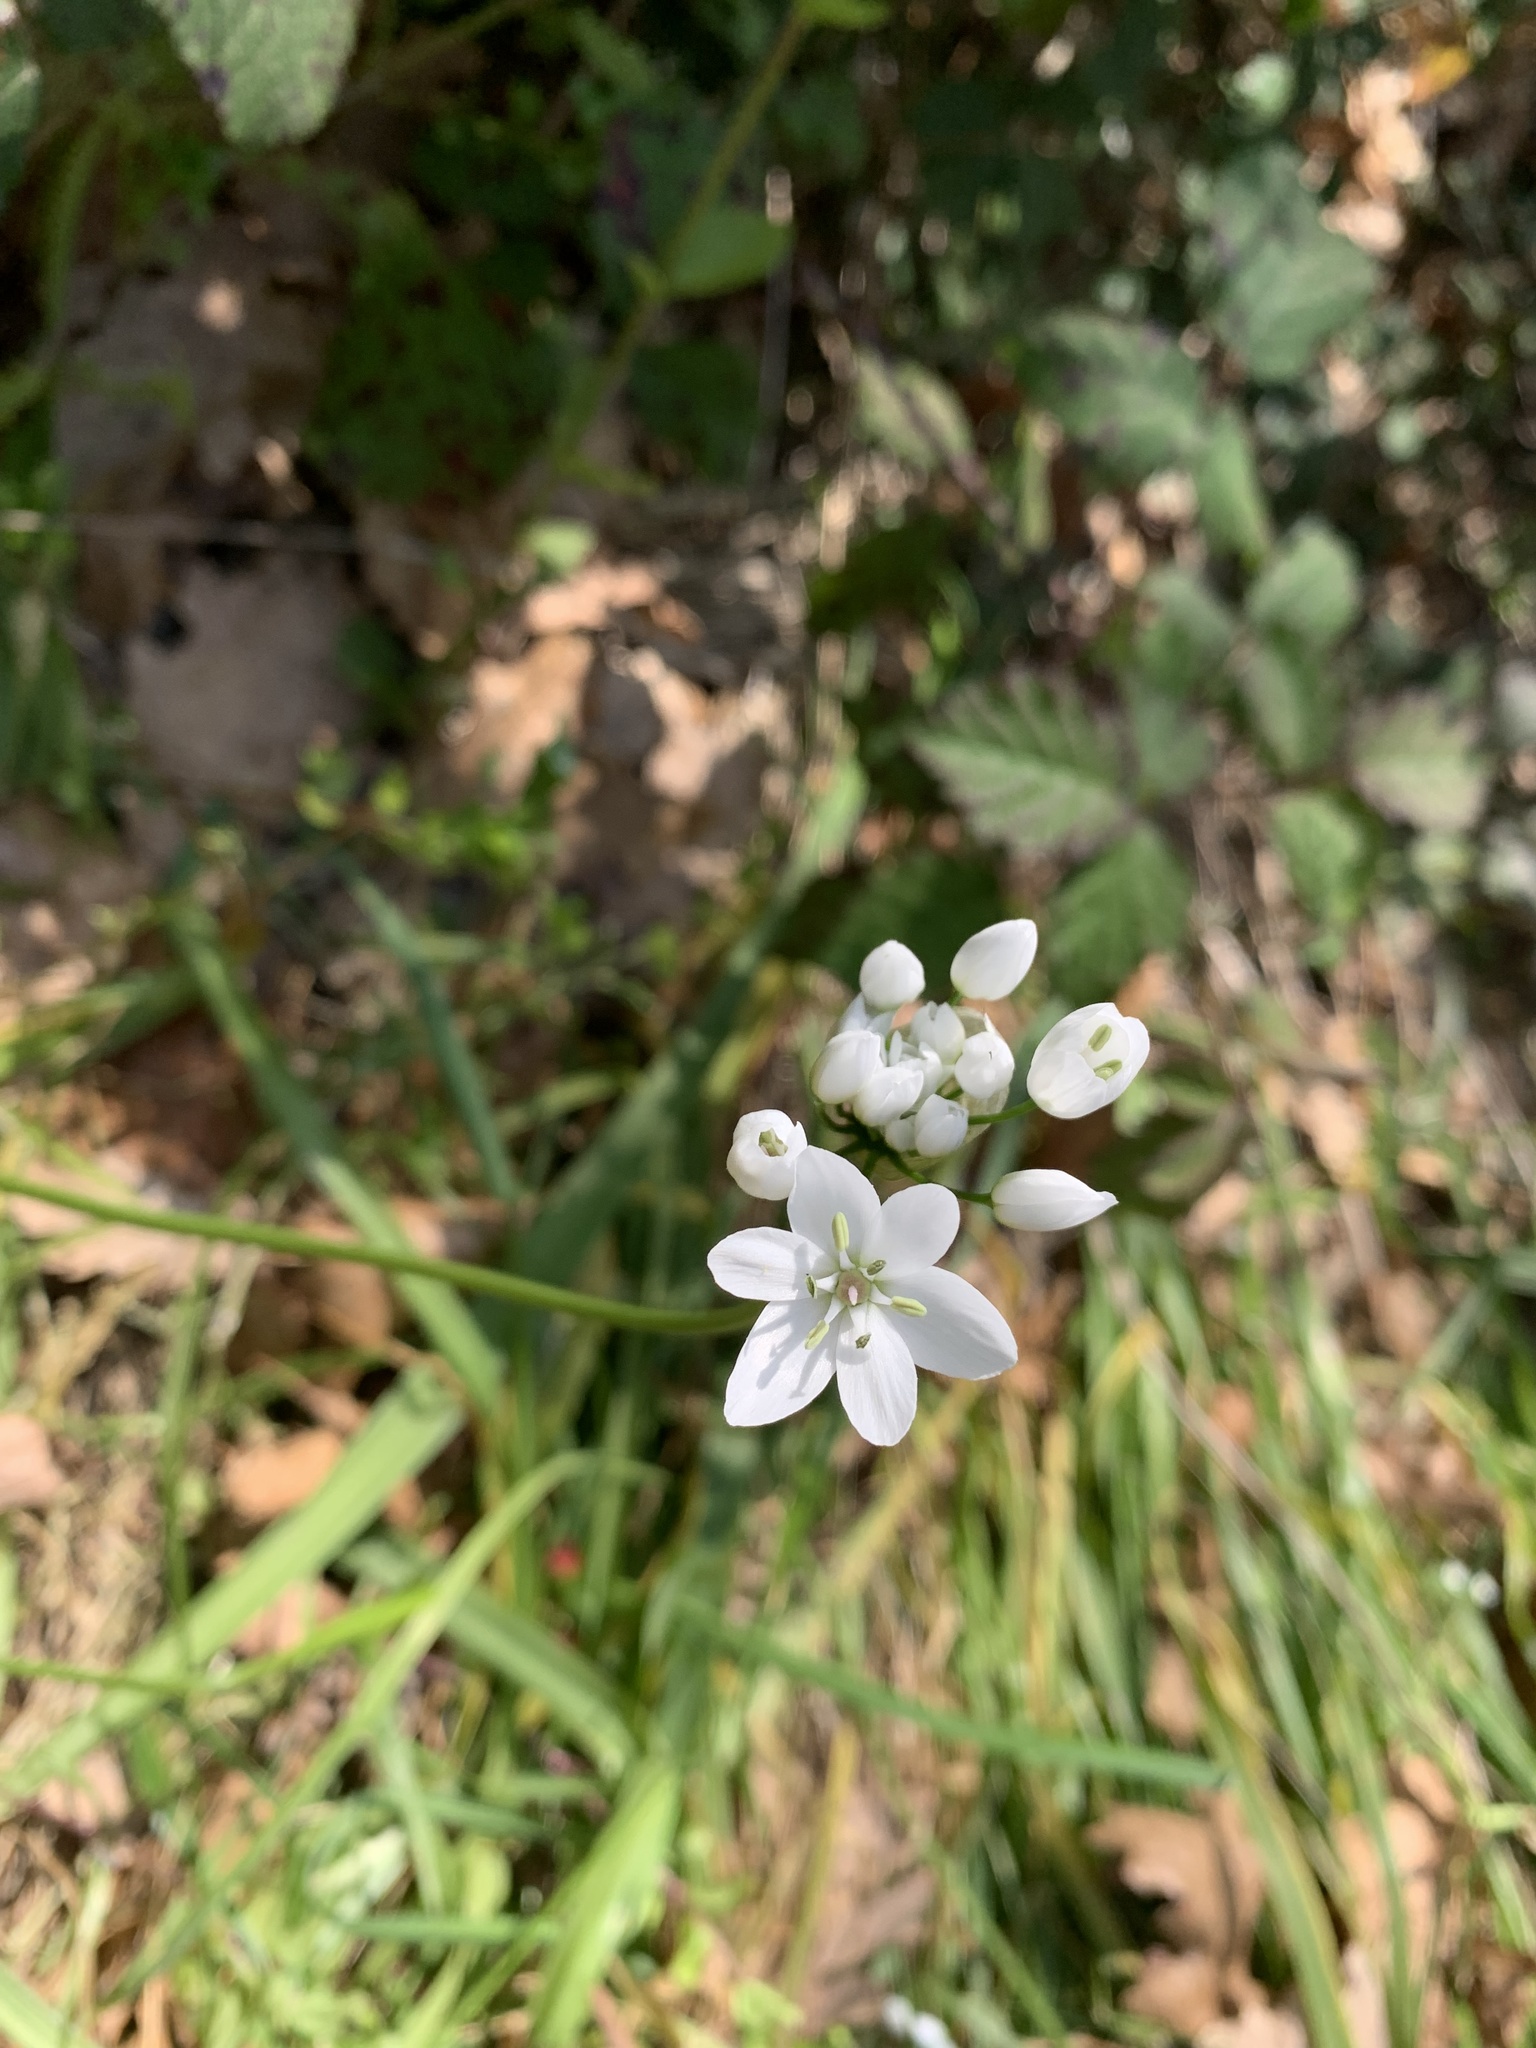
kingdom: Plantae
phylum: Tracheophyta
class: Liliopsida
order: Asparagales
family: Amaryllidaceae
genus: Allium
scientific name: Allium neapolitanum
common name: Neapolitan garlic
